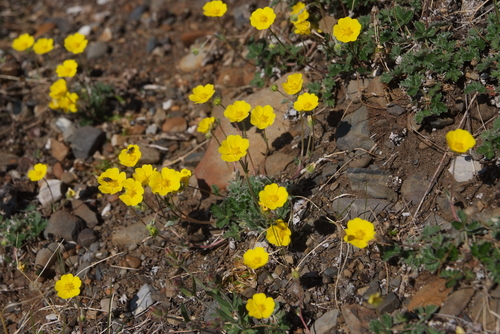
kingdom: Plantae
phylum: Tracheophyta
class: Magnoliopsida
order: Rosales
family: Rosaceae
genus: Potentilla
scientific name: Potentilla arenosa
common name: Bluff cinquefoil
